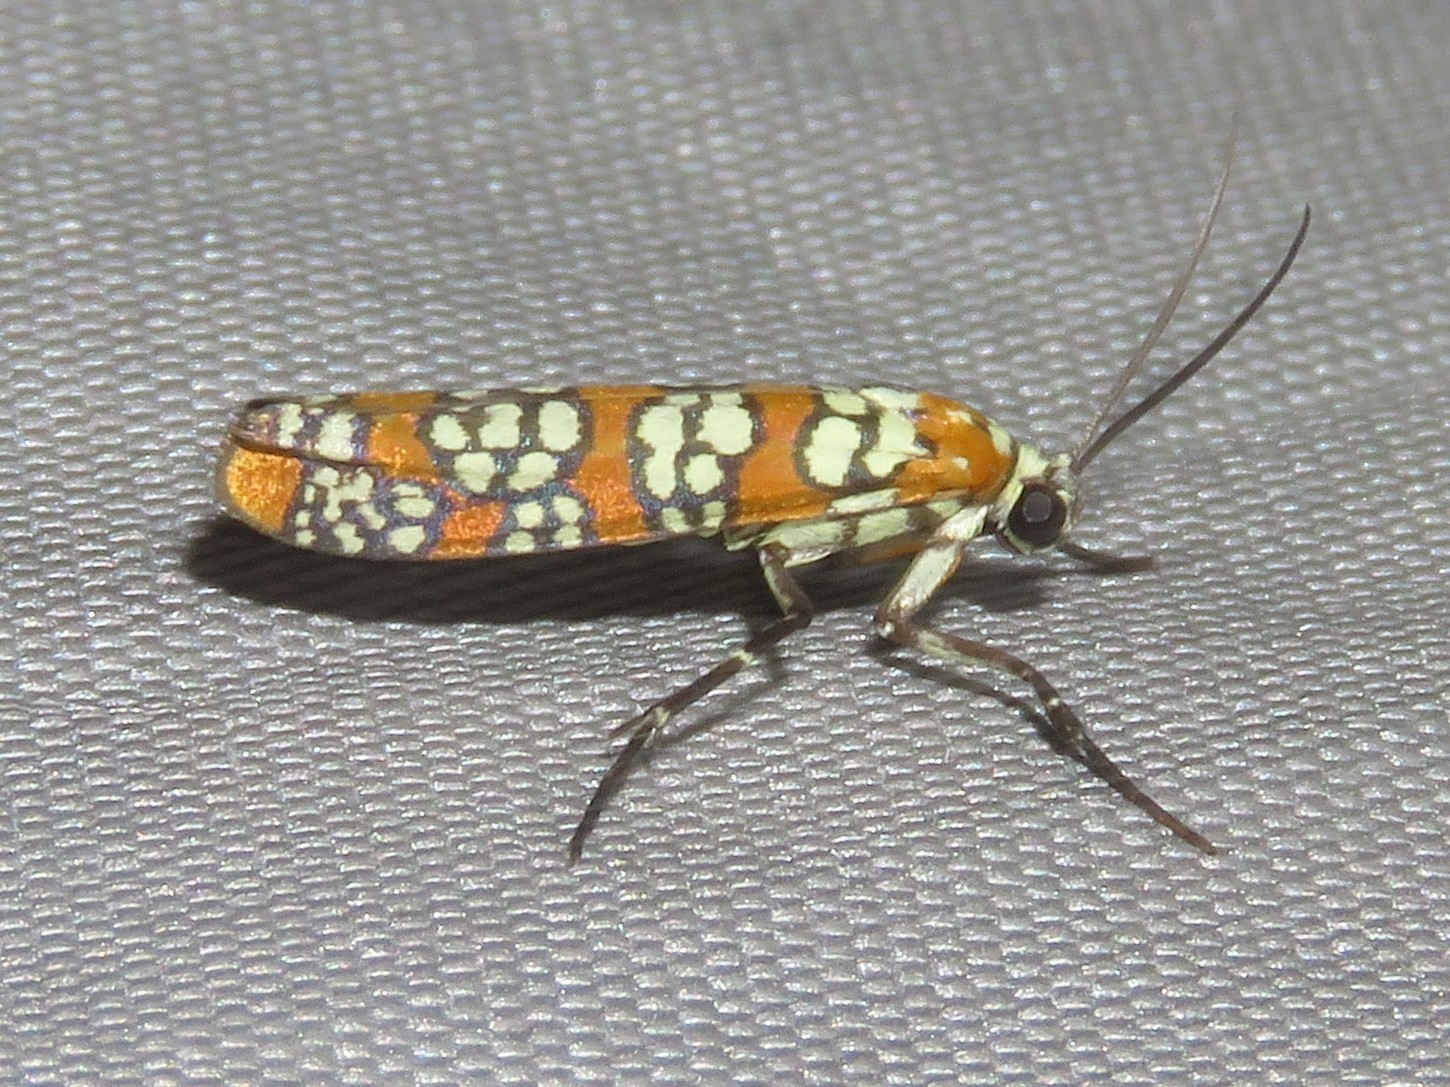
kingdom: Animalia
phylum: Arthropoda
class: Insecta
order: Lepidoptera
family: Attevidae
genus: Atteva
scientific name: Atteva punctella
